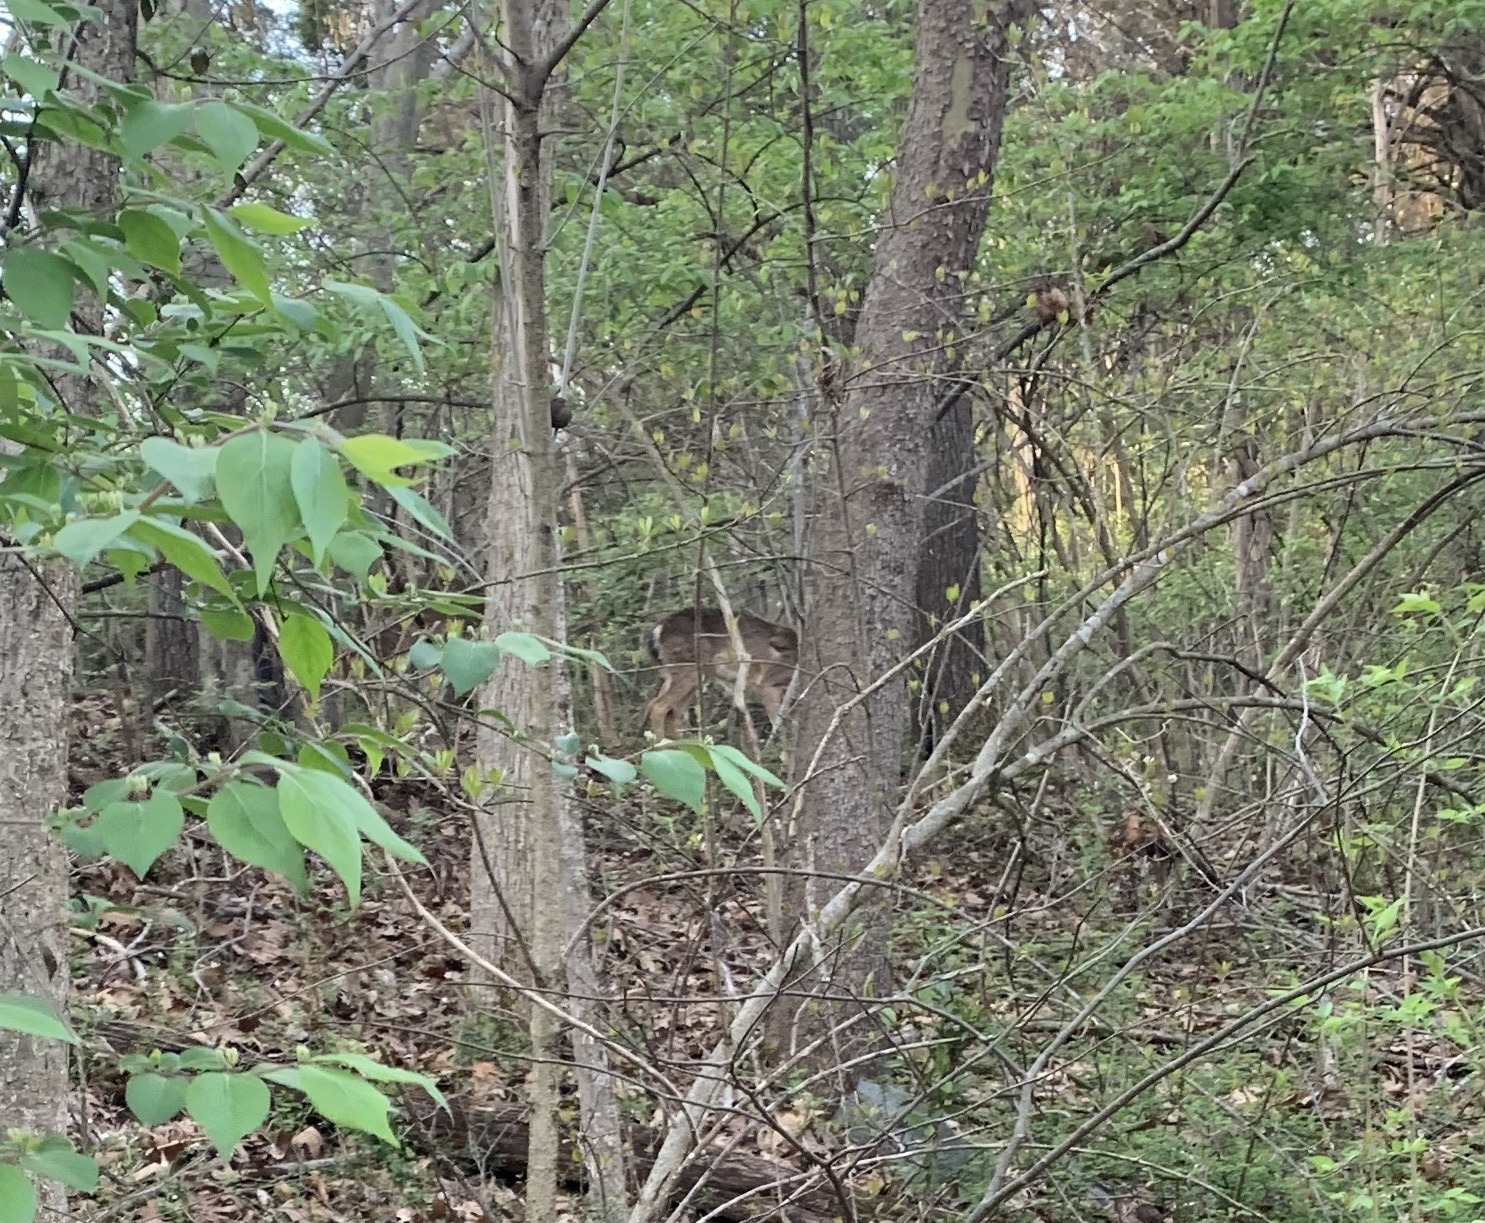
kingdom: Animalia
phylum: Chordata
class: Mammalia
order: Artiodactyla
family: Cervidae
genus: Odocoileus
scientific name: Odocoileus virginianus
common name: White-tailed deer
